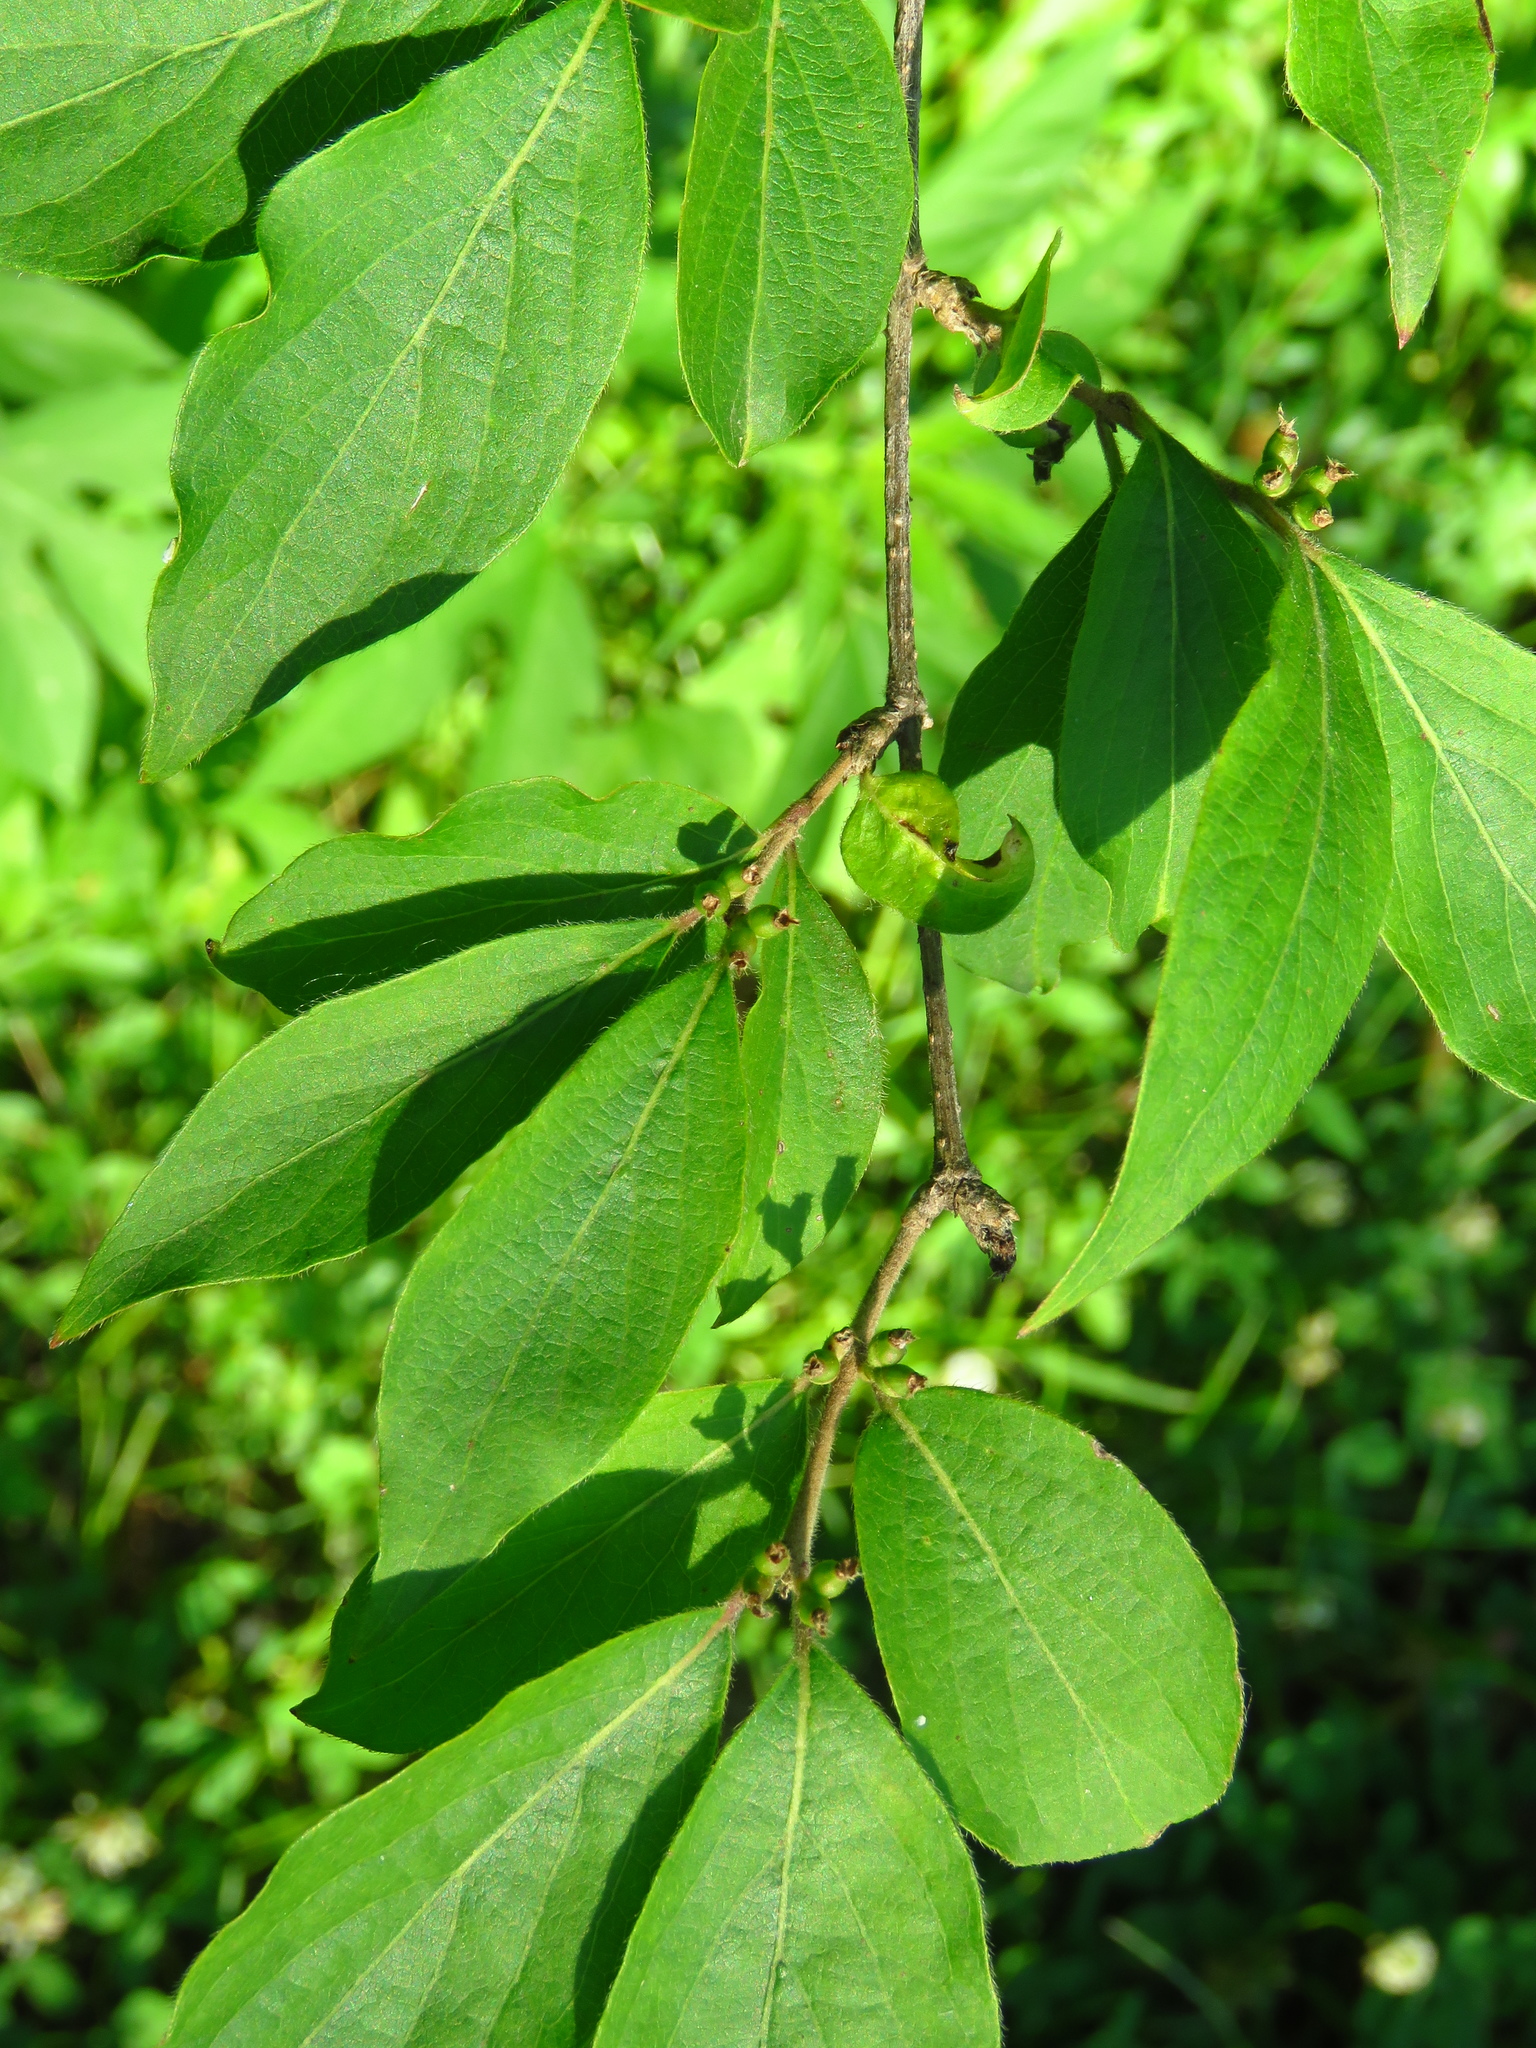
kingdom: Plantae
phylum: Tracheophyta
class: Magnoliopsida
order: Dipsacales
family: Caprifoliaceae
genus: Lonicera
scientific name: Lonicera maackii
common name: Amur honeysuckle
